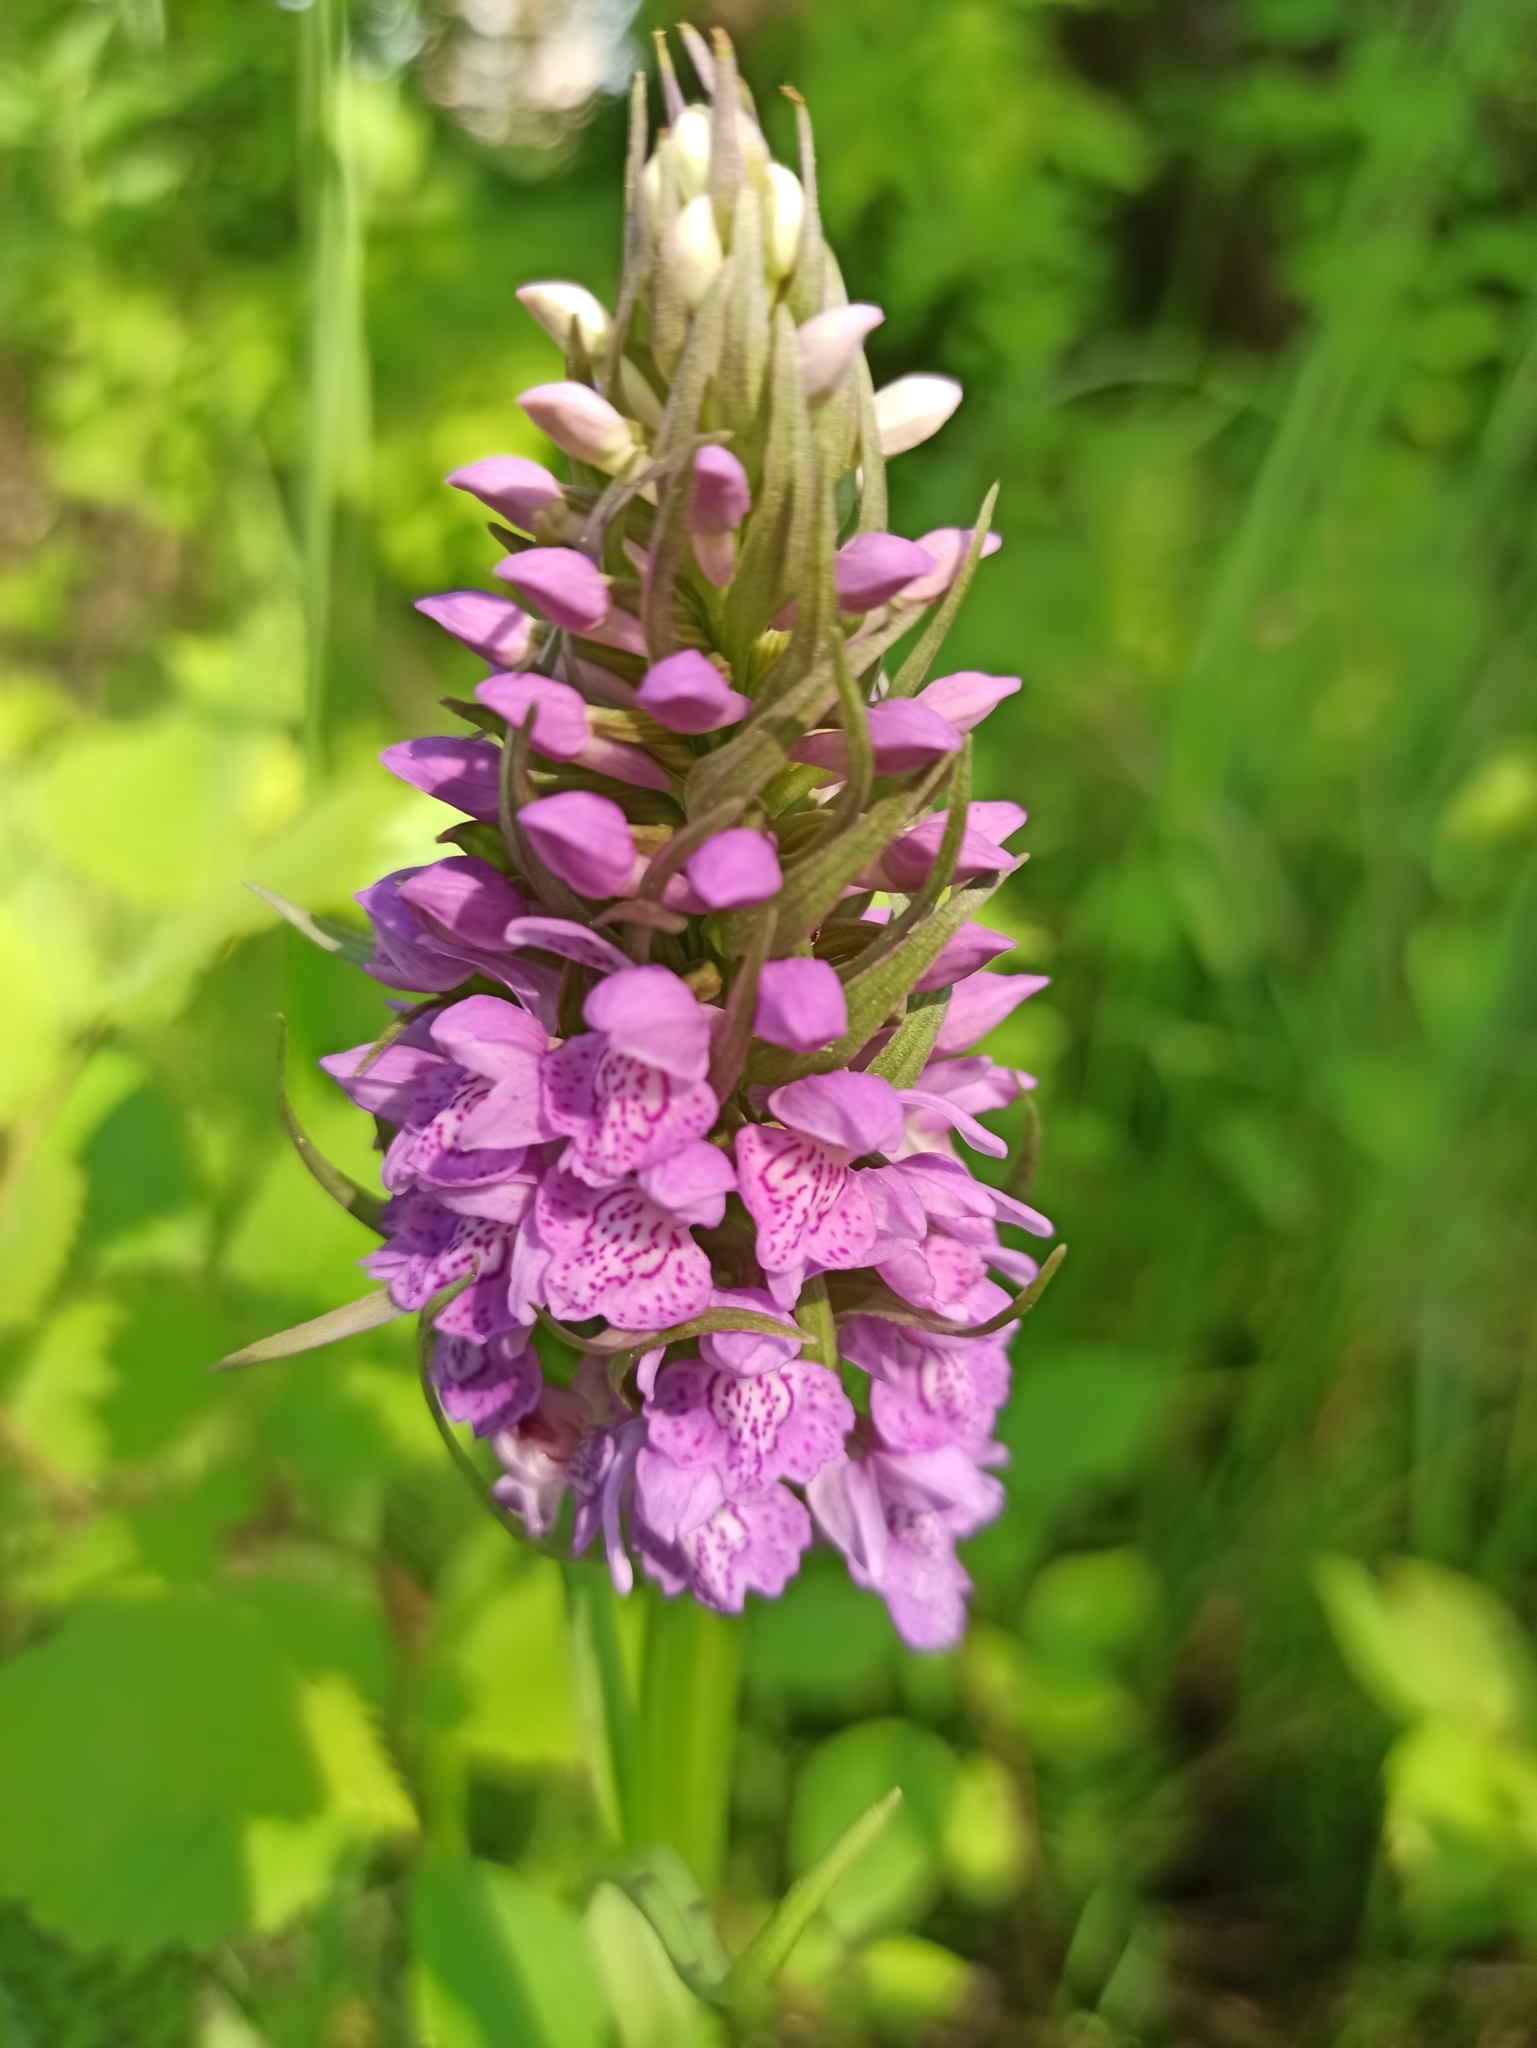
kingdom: Plantae
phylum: Tracheophyta
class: Liliopsida
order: Asparagales
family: Orchidaceae
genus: Dactylorhiza
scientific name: Dactylorhiza majalis
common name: Marsh orchid
